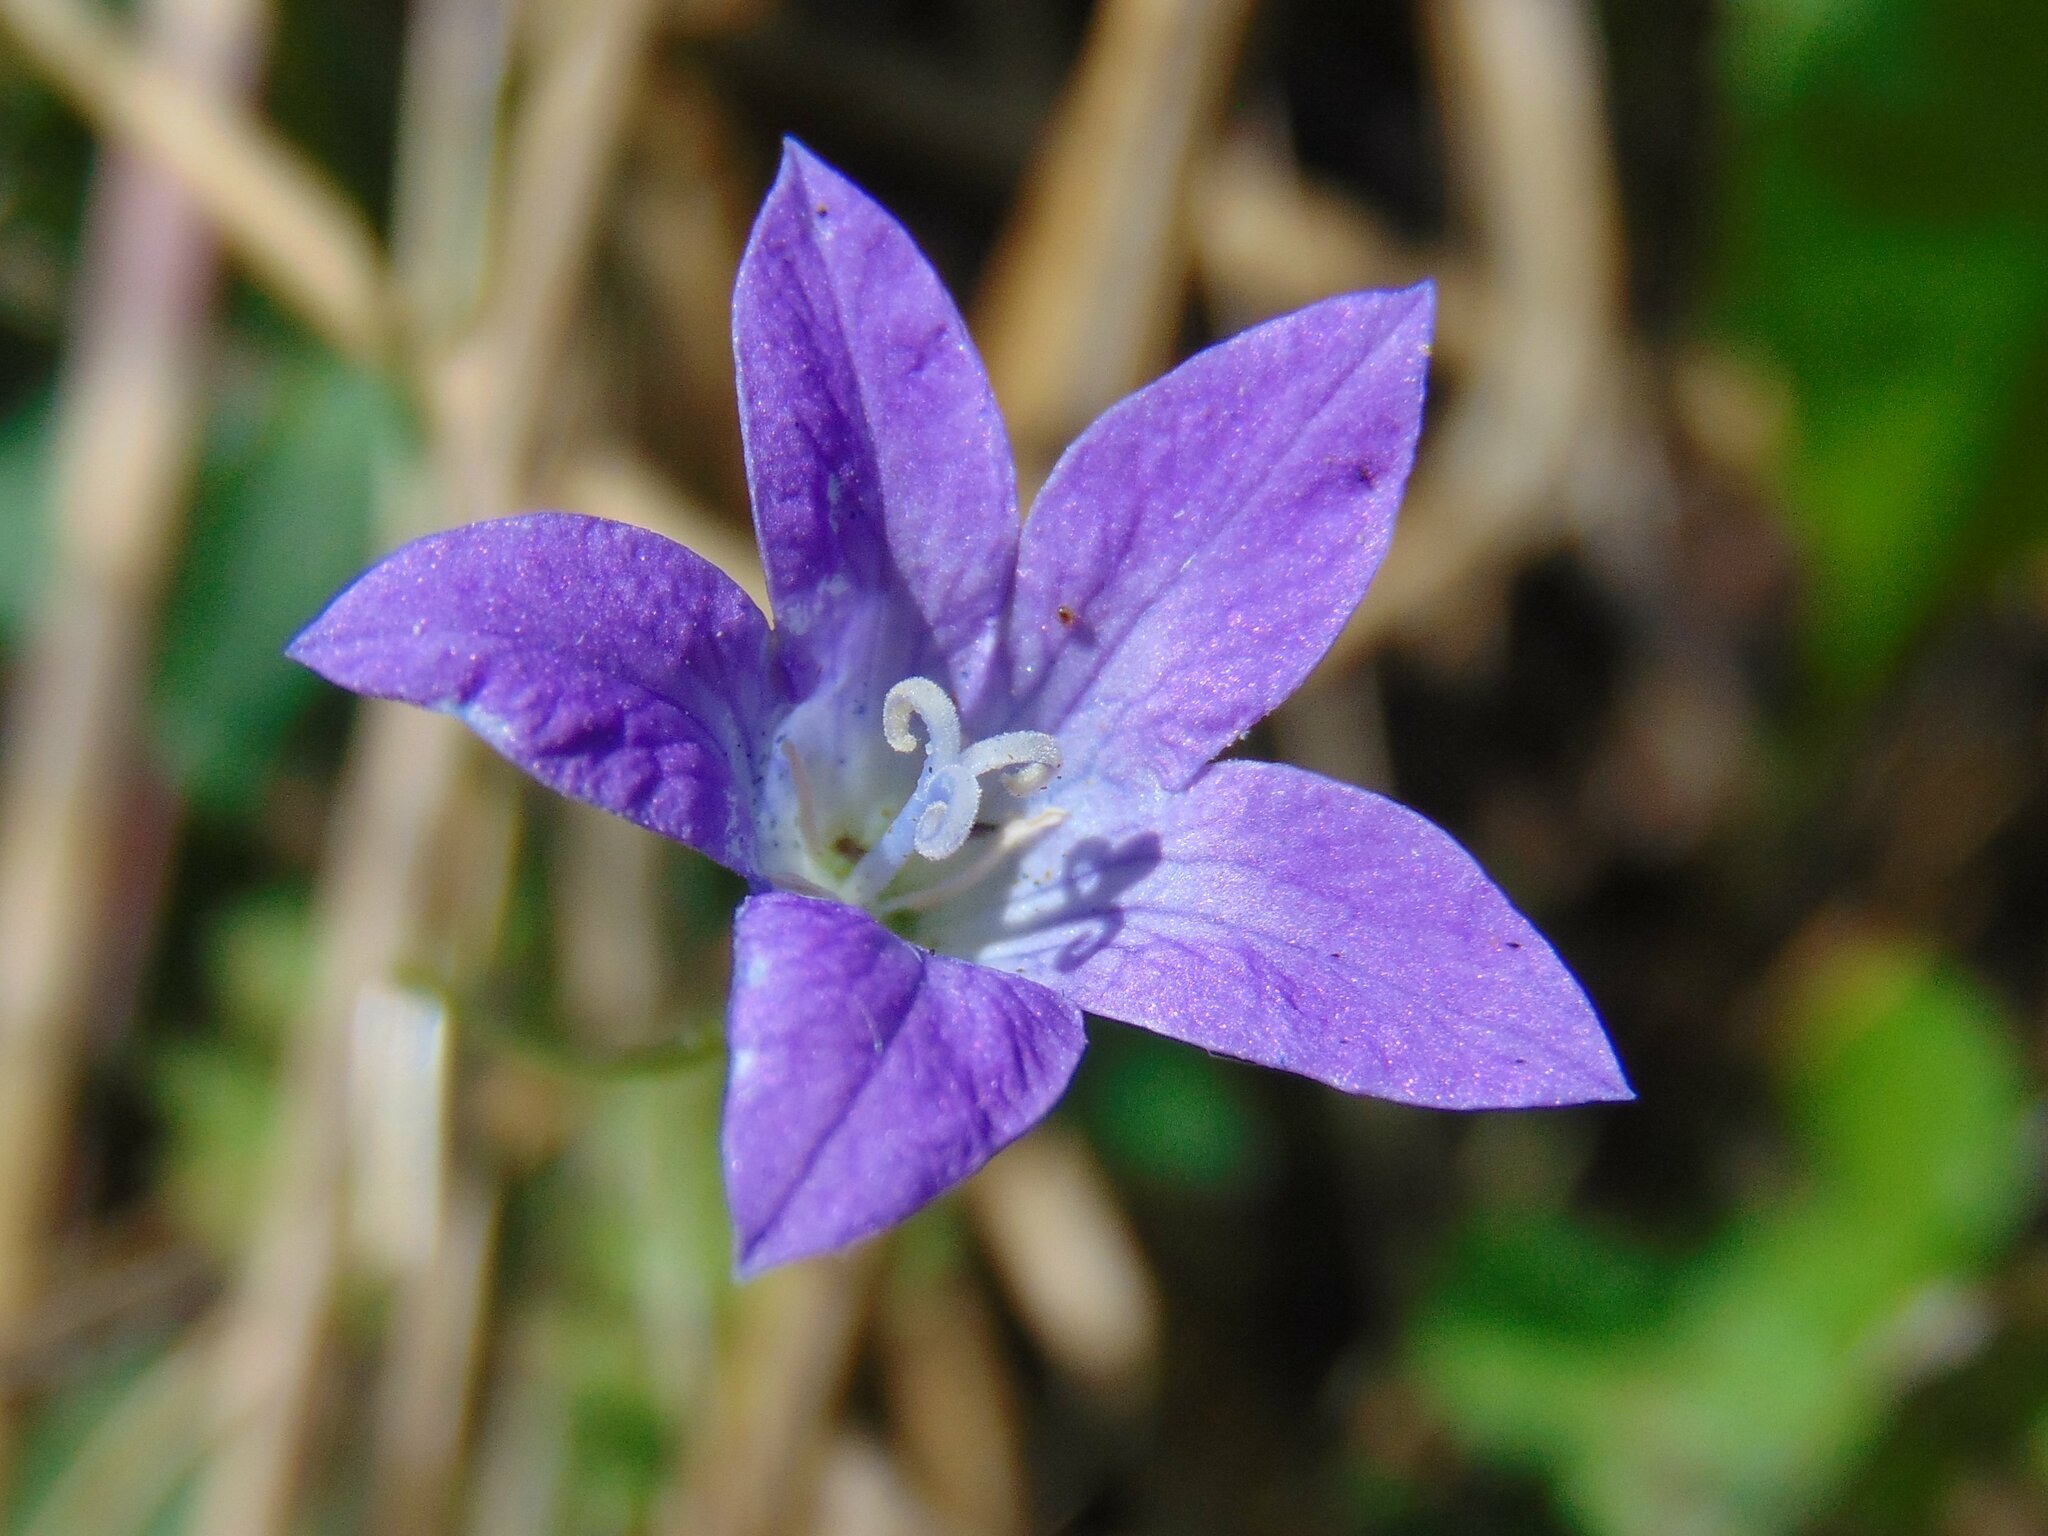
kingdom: Plantae
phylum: Tracheophyta
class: Magnoliopsida
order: Asterales
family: Campanulaceae
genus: Campanula
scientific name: Campanula patula
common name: Spreading bellflower
